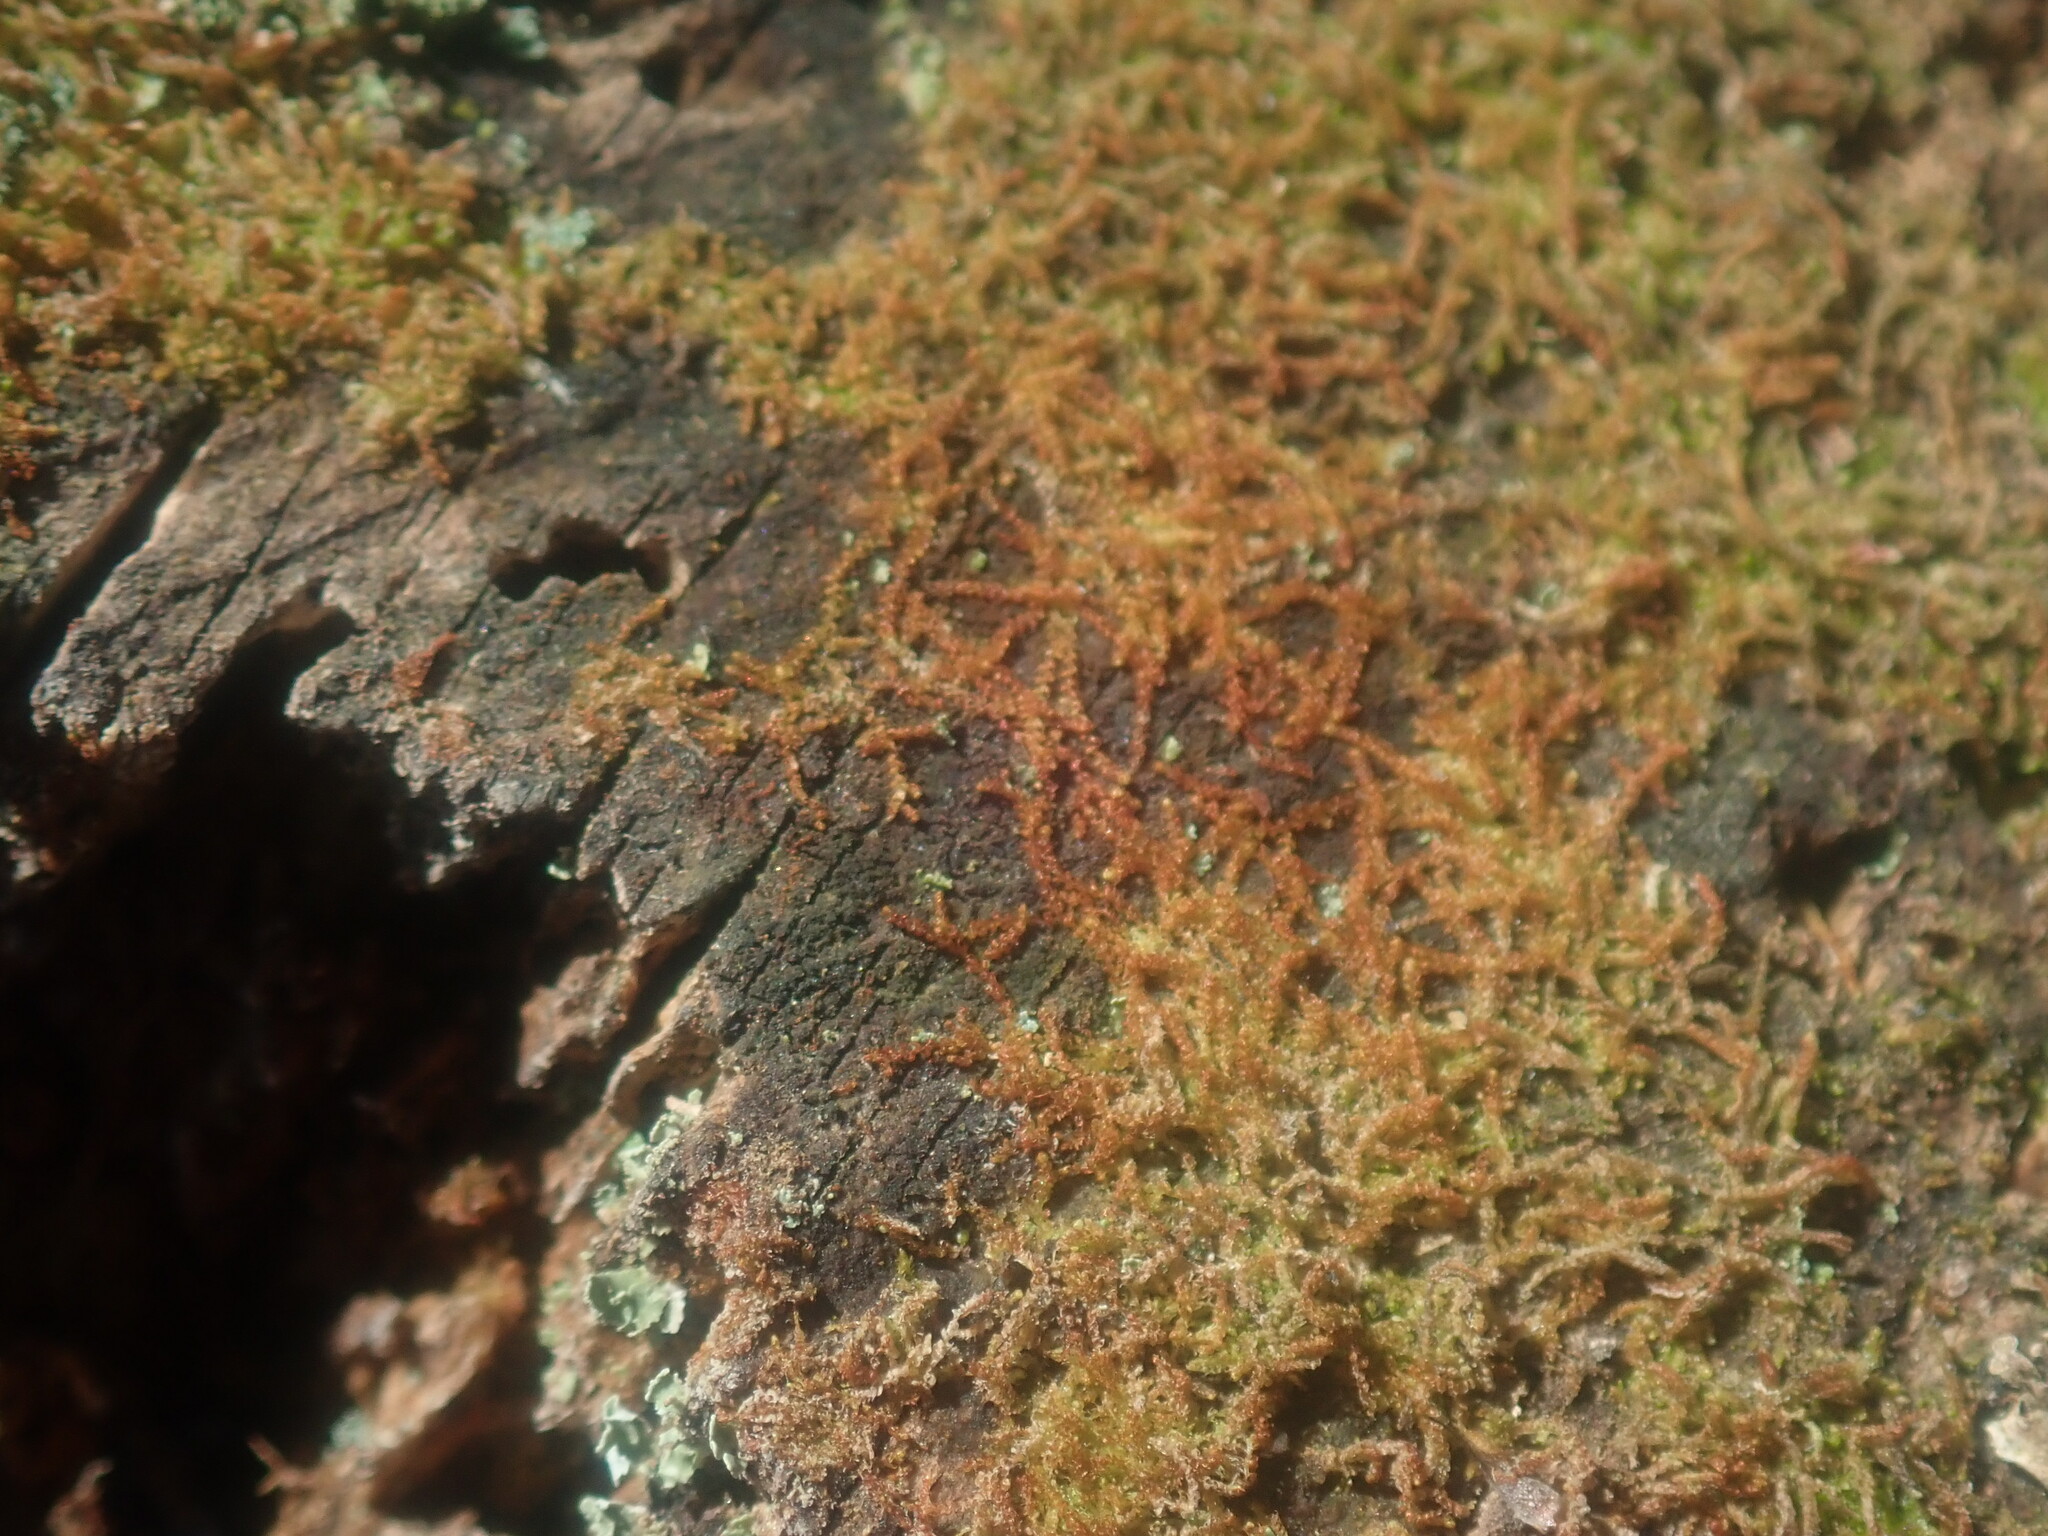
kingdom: Plantae
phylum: Marchantiophyta
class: Jungermanniopsida
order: Jungermanniales
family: Cephaloziaceae
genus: Nowellia
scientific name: Nowellia curvifolia
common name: Wood rustwort
